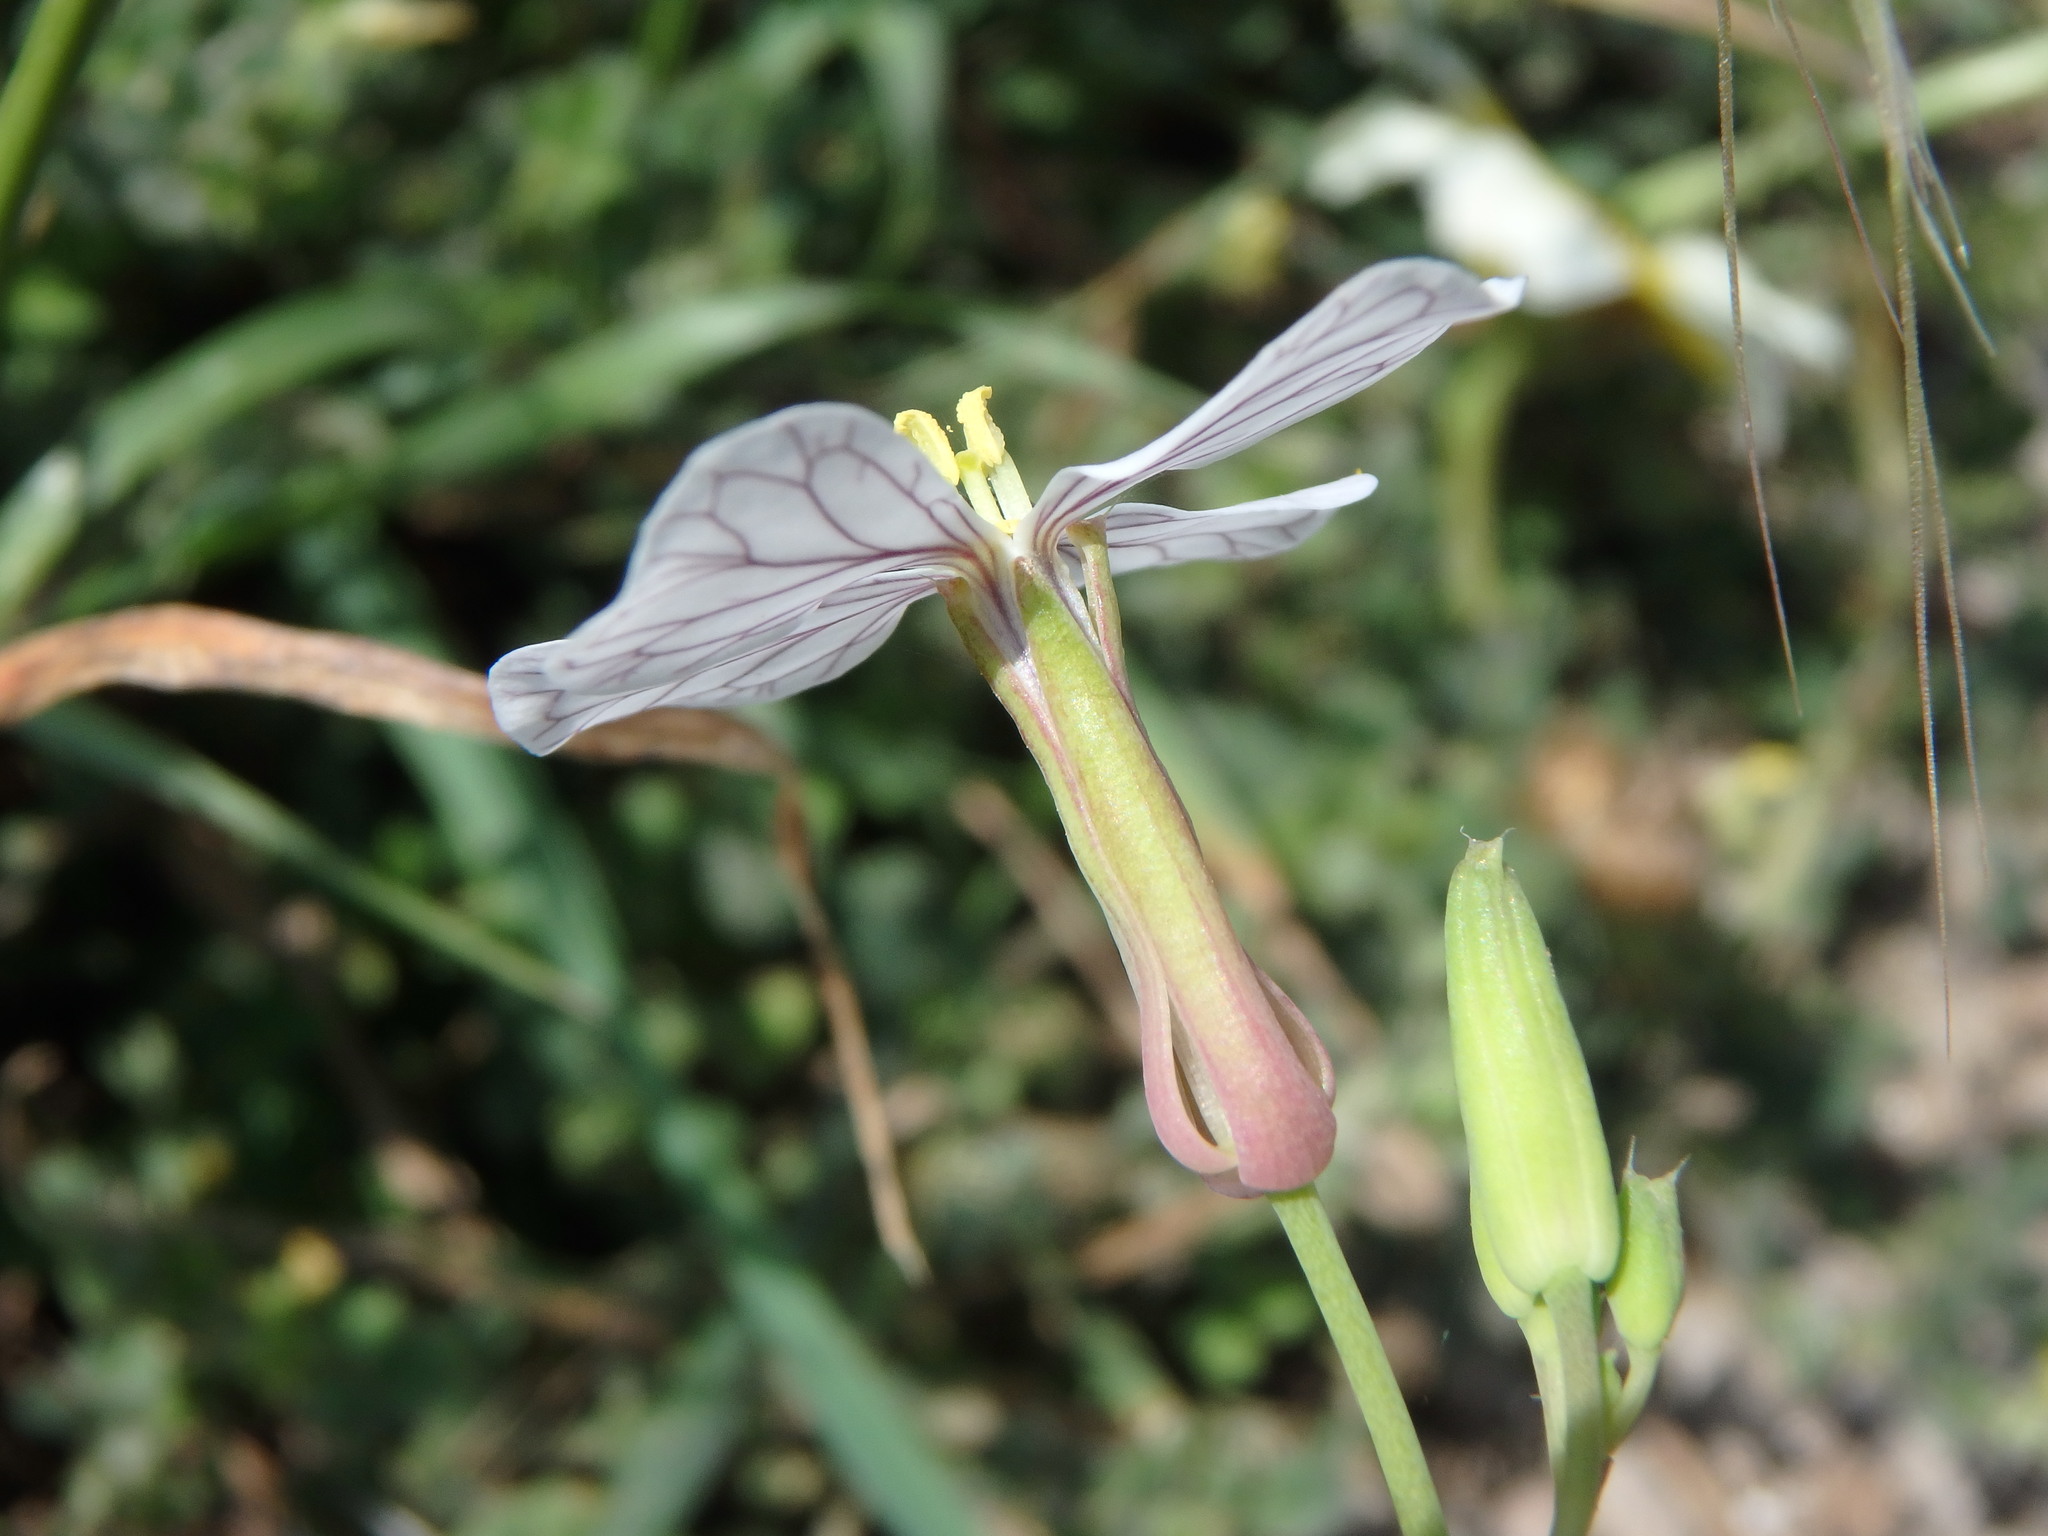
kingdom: Plantae
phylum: Tracheophyta
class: Magnoliopsida
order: Brassicales
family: Brassicaceae
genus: Raphanus
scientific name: Raphanus raphanistrum
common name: Wild radish
